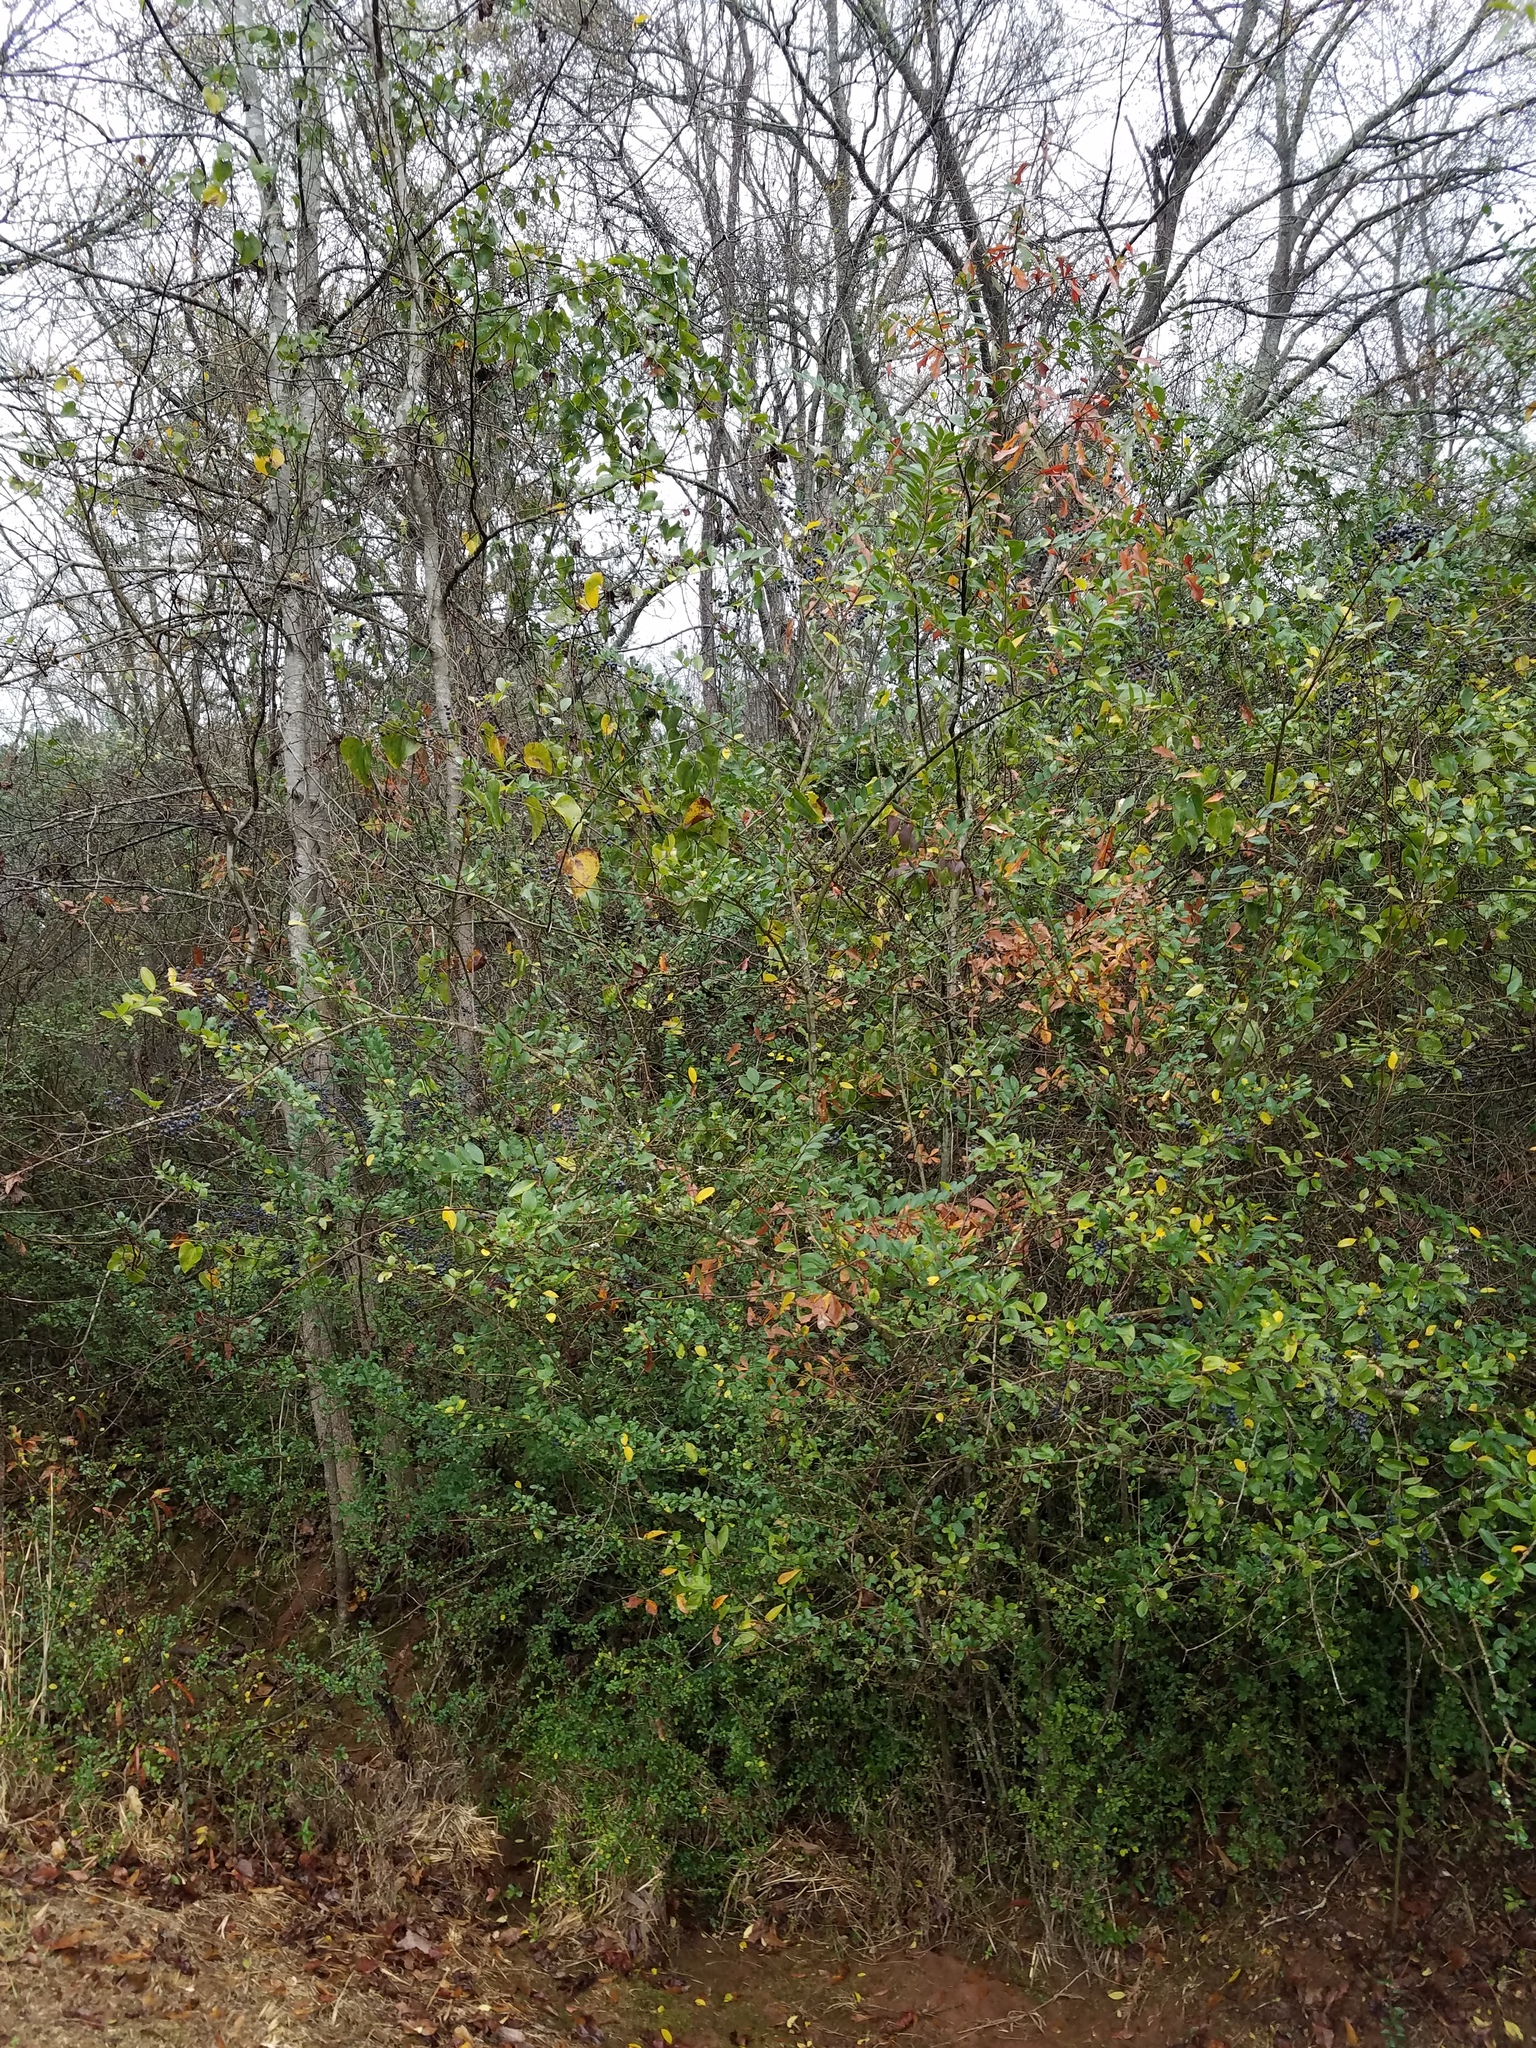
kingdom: Plantae
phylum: Tracheophyta
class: Magnoliopsida
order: Lamiales
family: Oleaceae
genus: Ligustrum
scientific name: Ligustrum sinense
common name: Chinese privet
